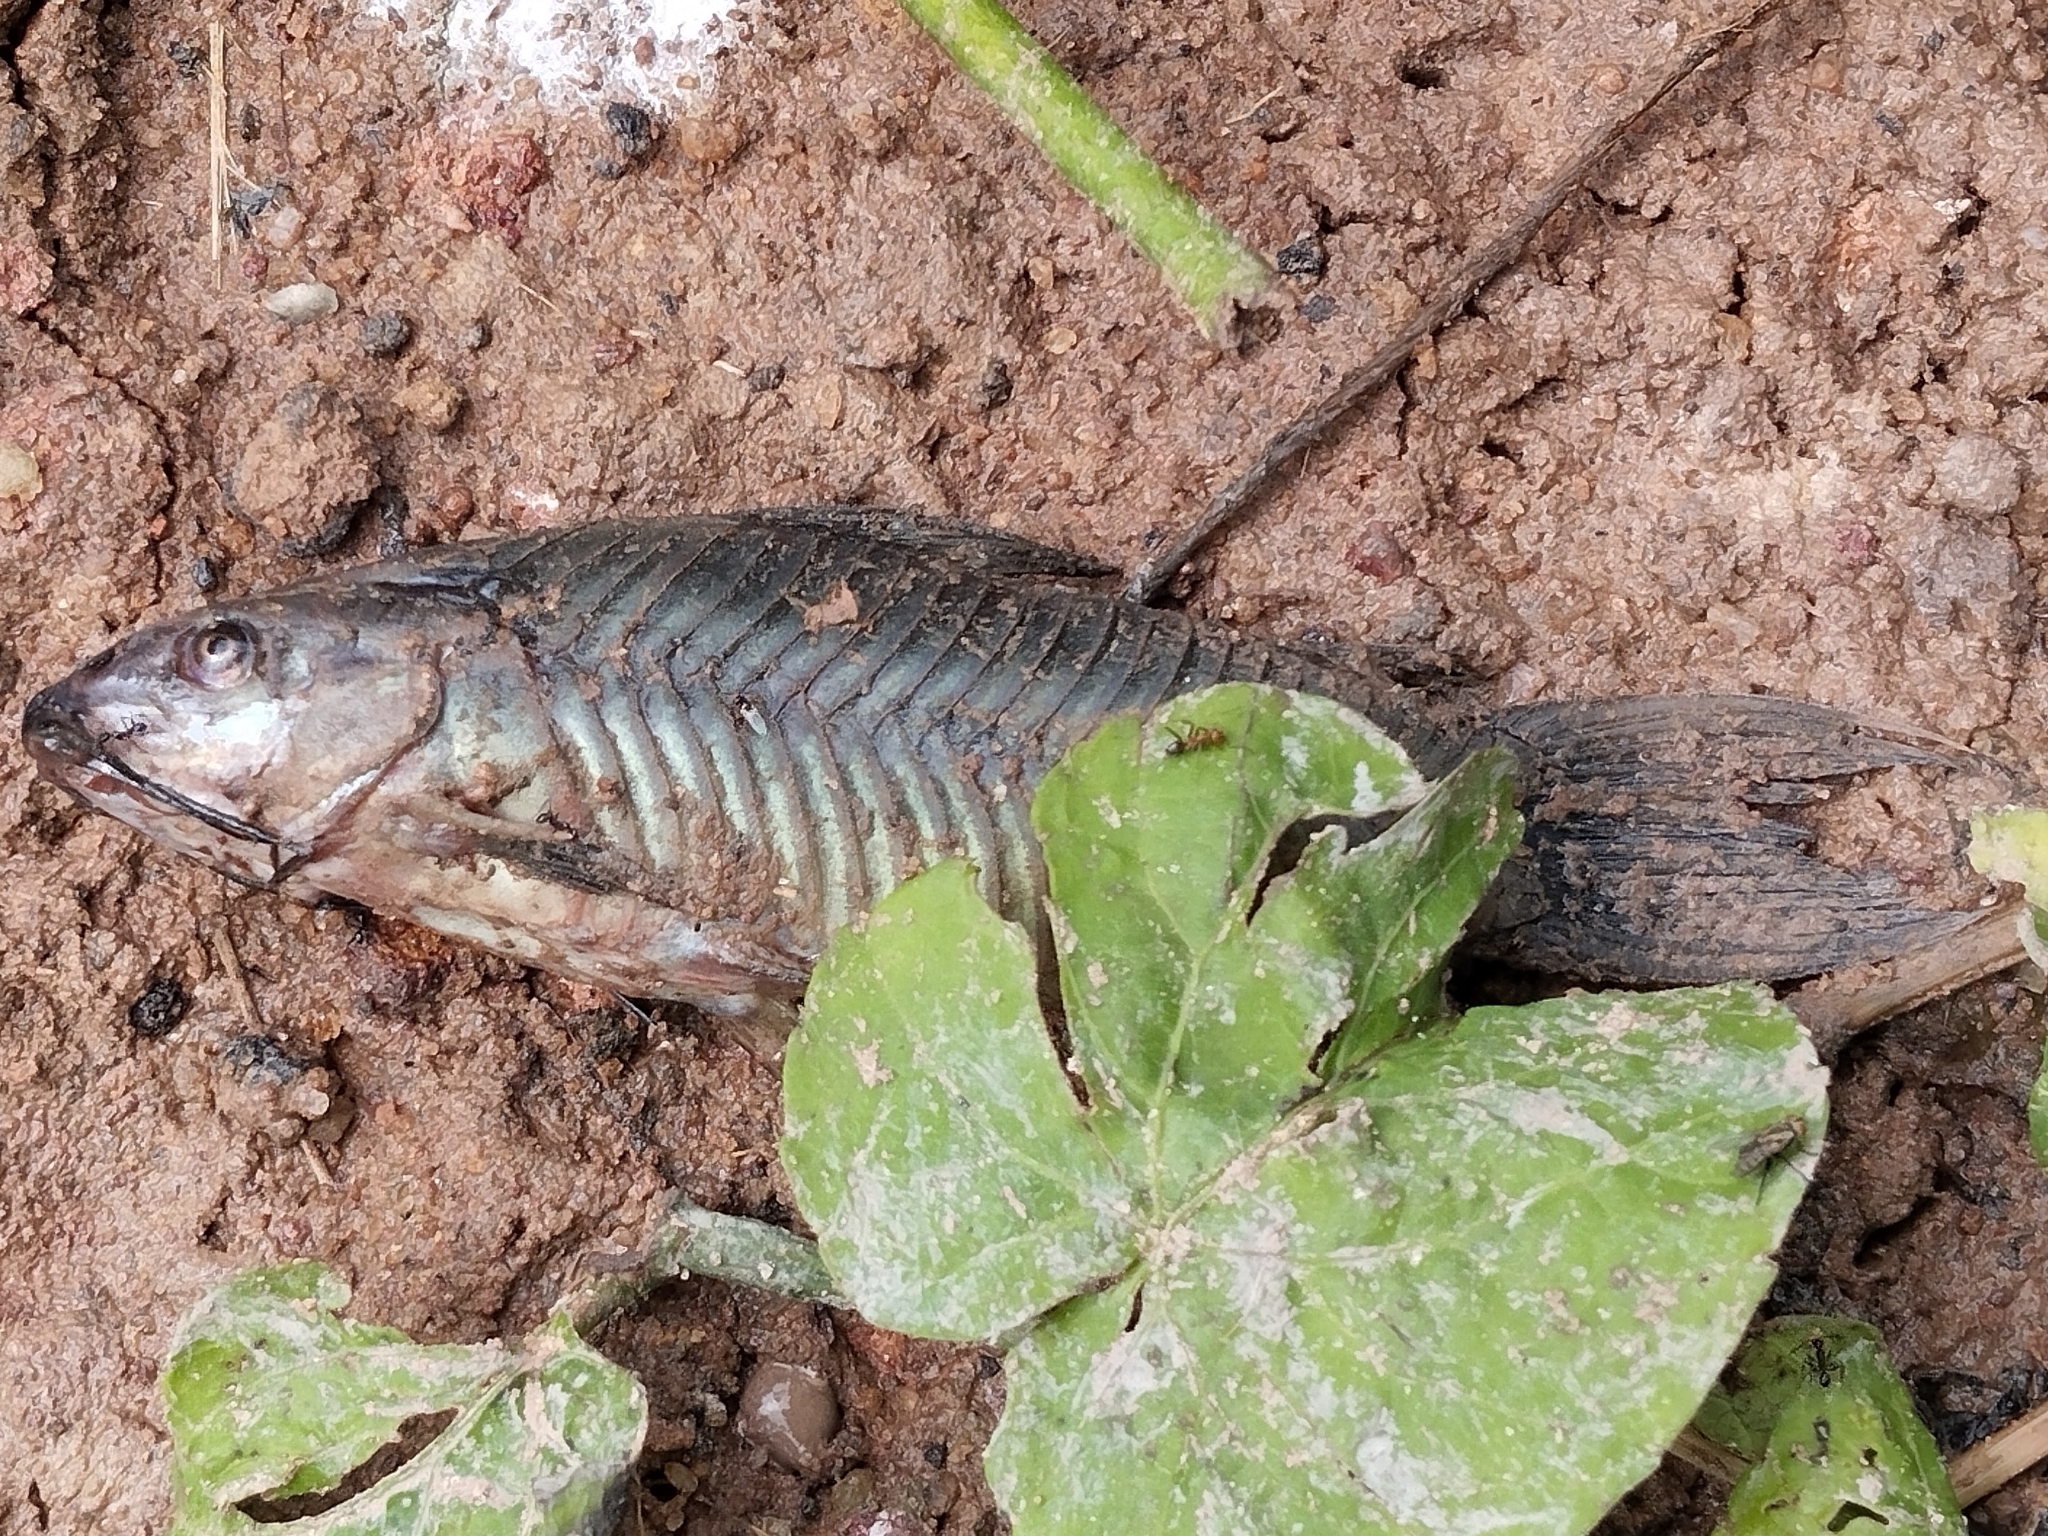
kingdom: Animalia
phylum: Chordata
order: Siluriformes
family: Callichthyidae
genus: Hoplosternum
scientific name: Hoplosternum littorale
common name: Brown hoplo
